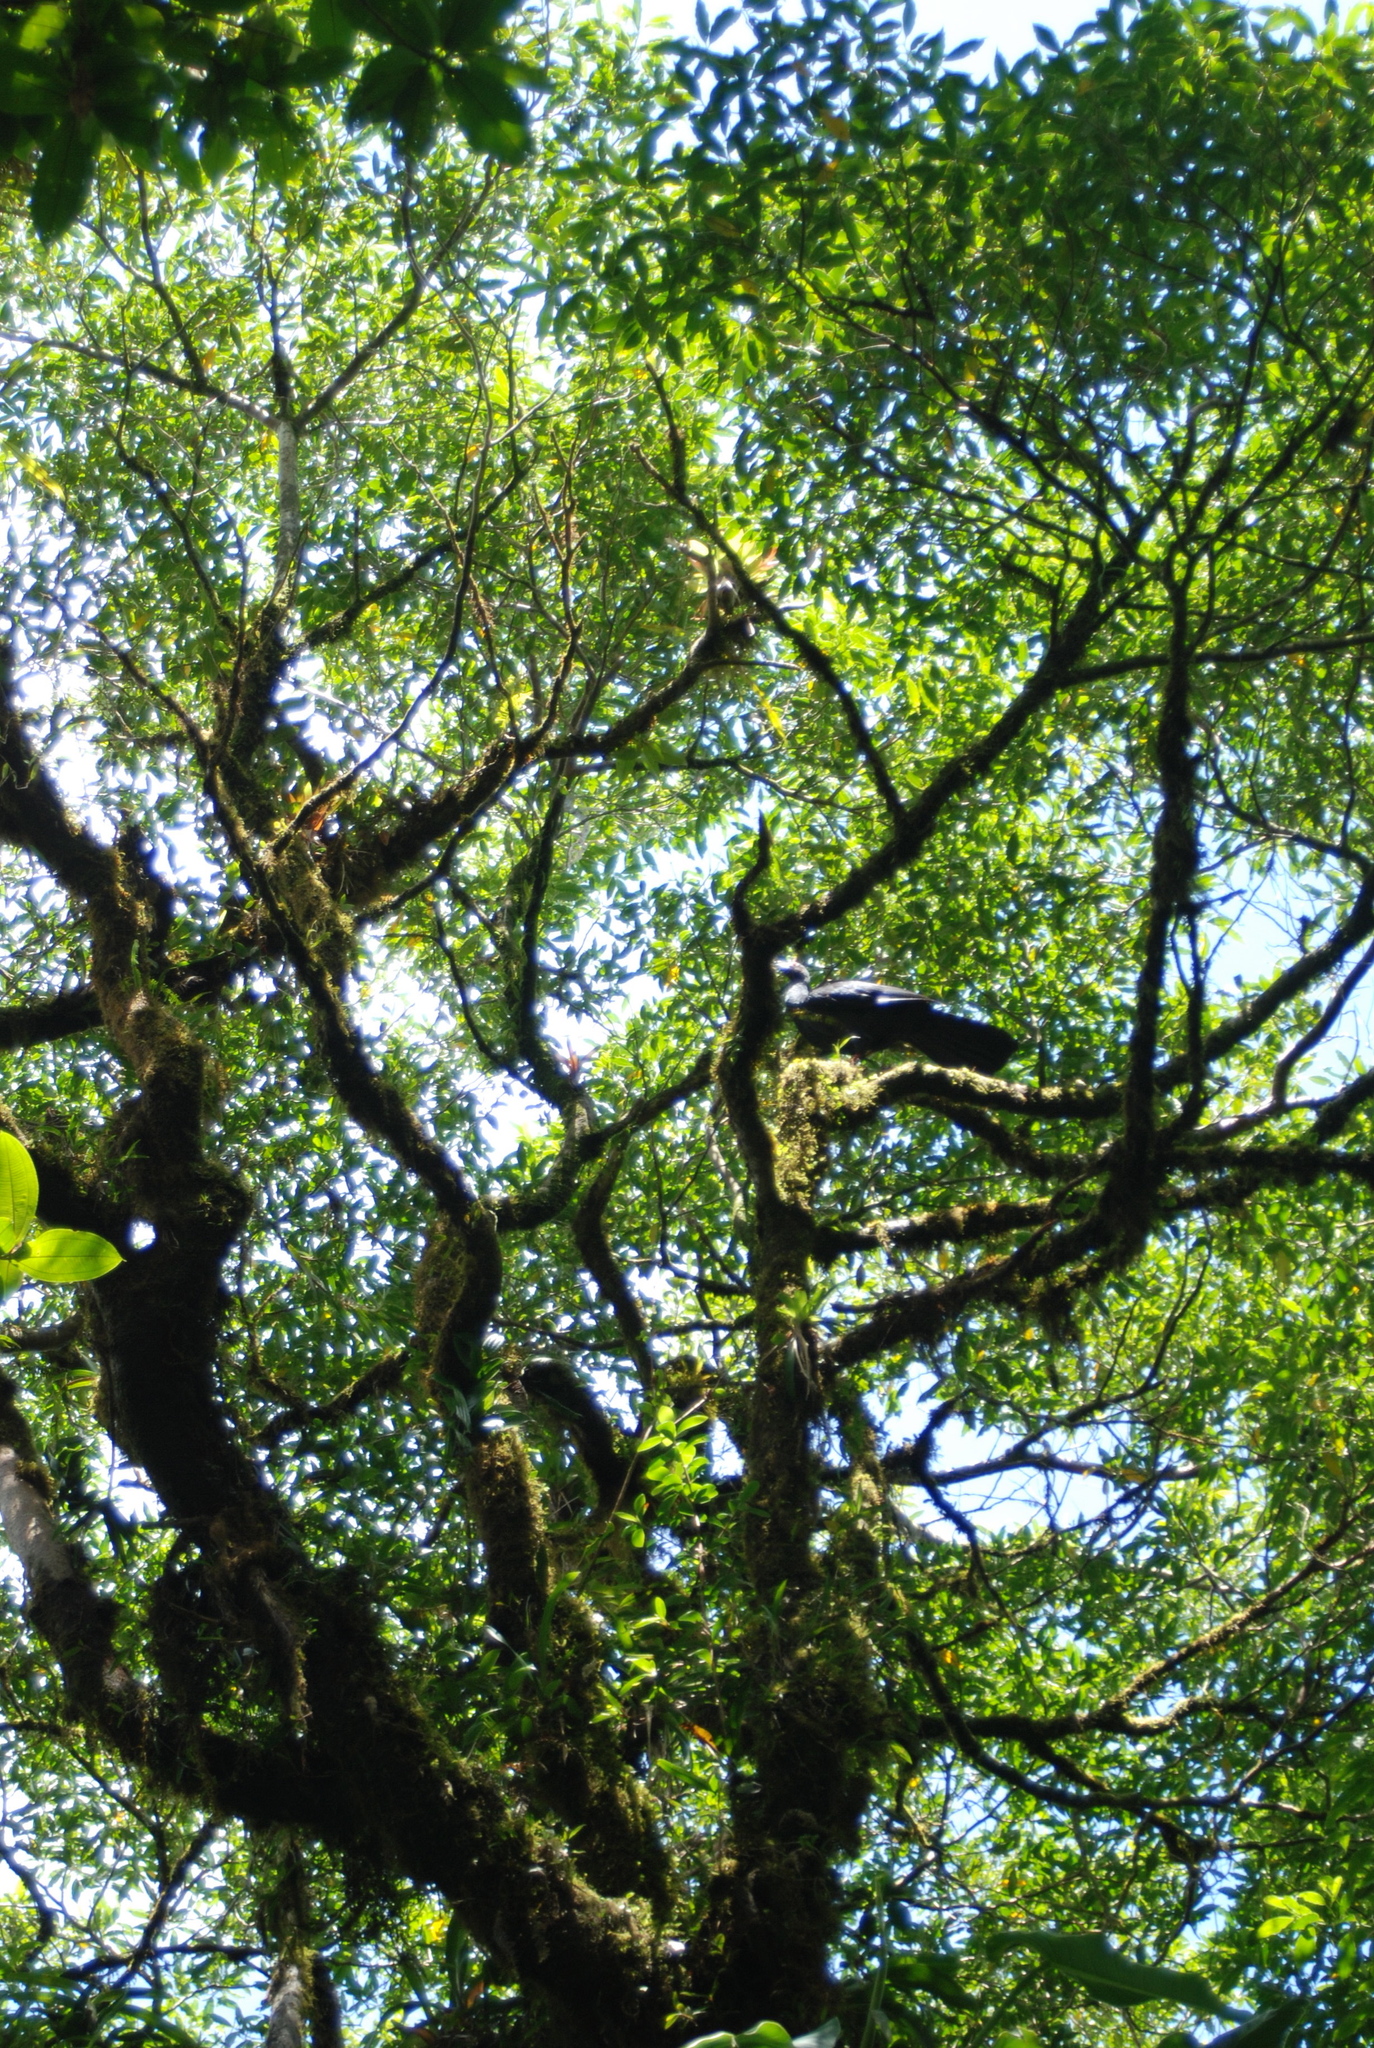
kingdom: Animalia
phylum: Chordata
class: Aves
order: Galliformes
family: Cracidae
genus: Chamaepetes
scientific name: Chamaepetes unicolor
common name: Black guan
